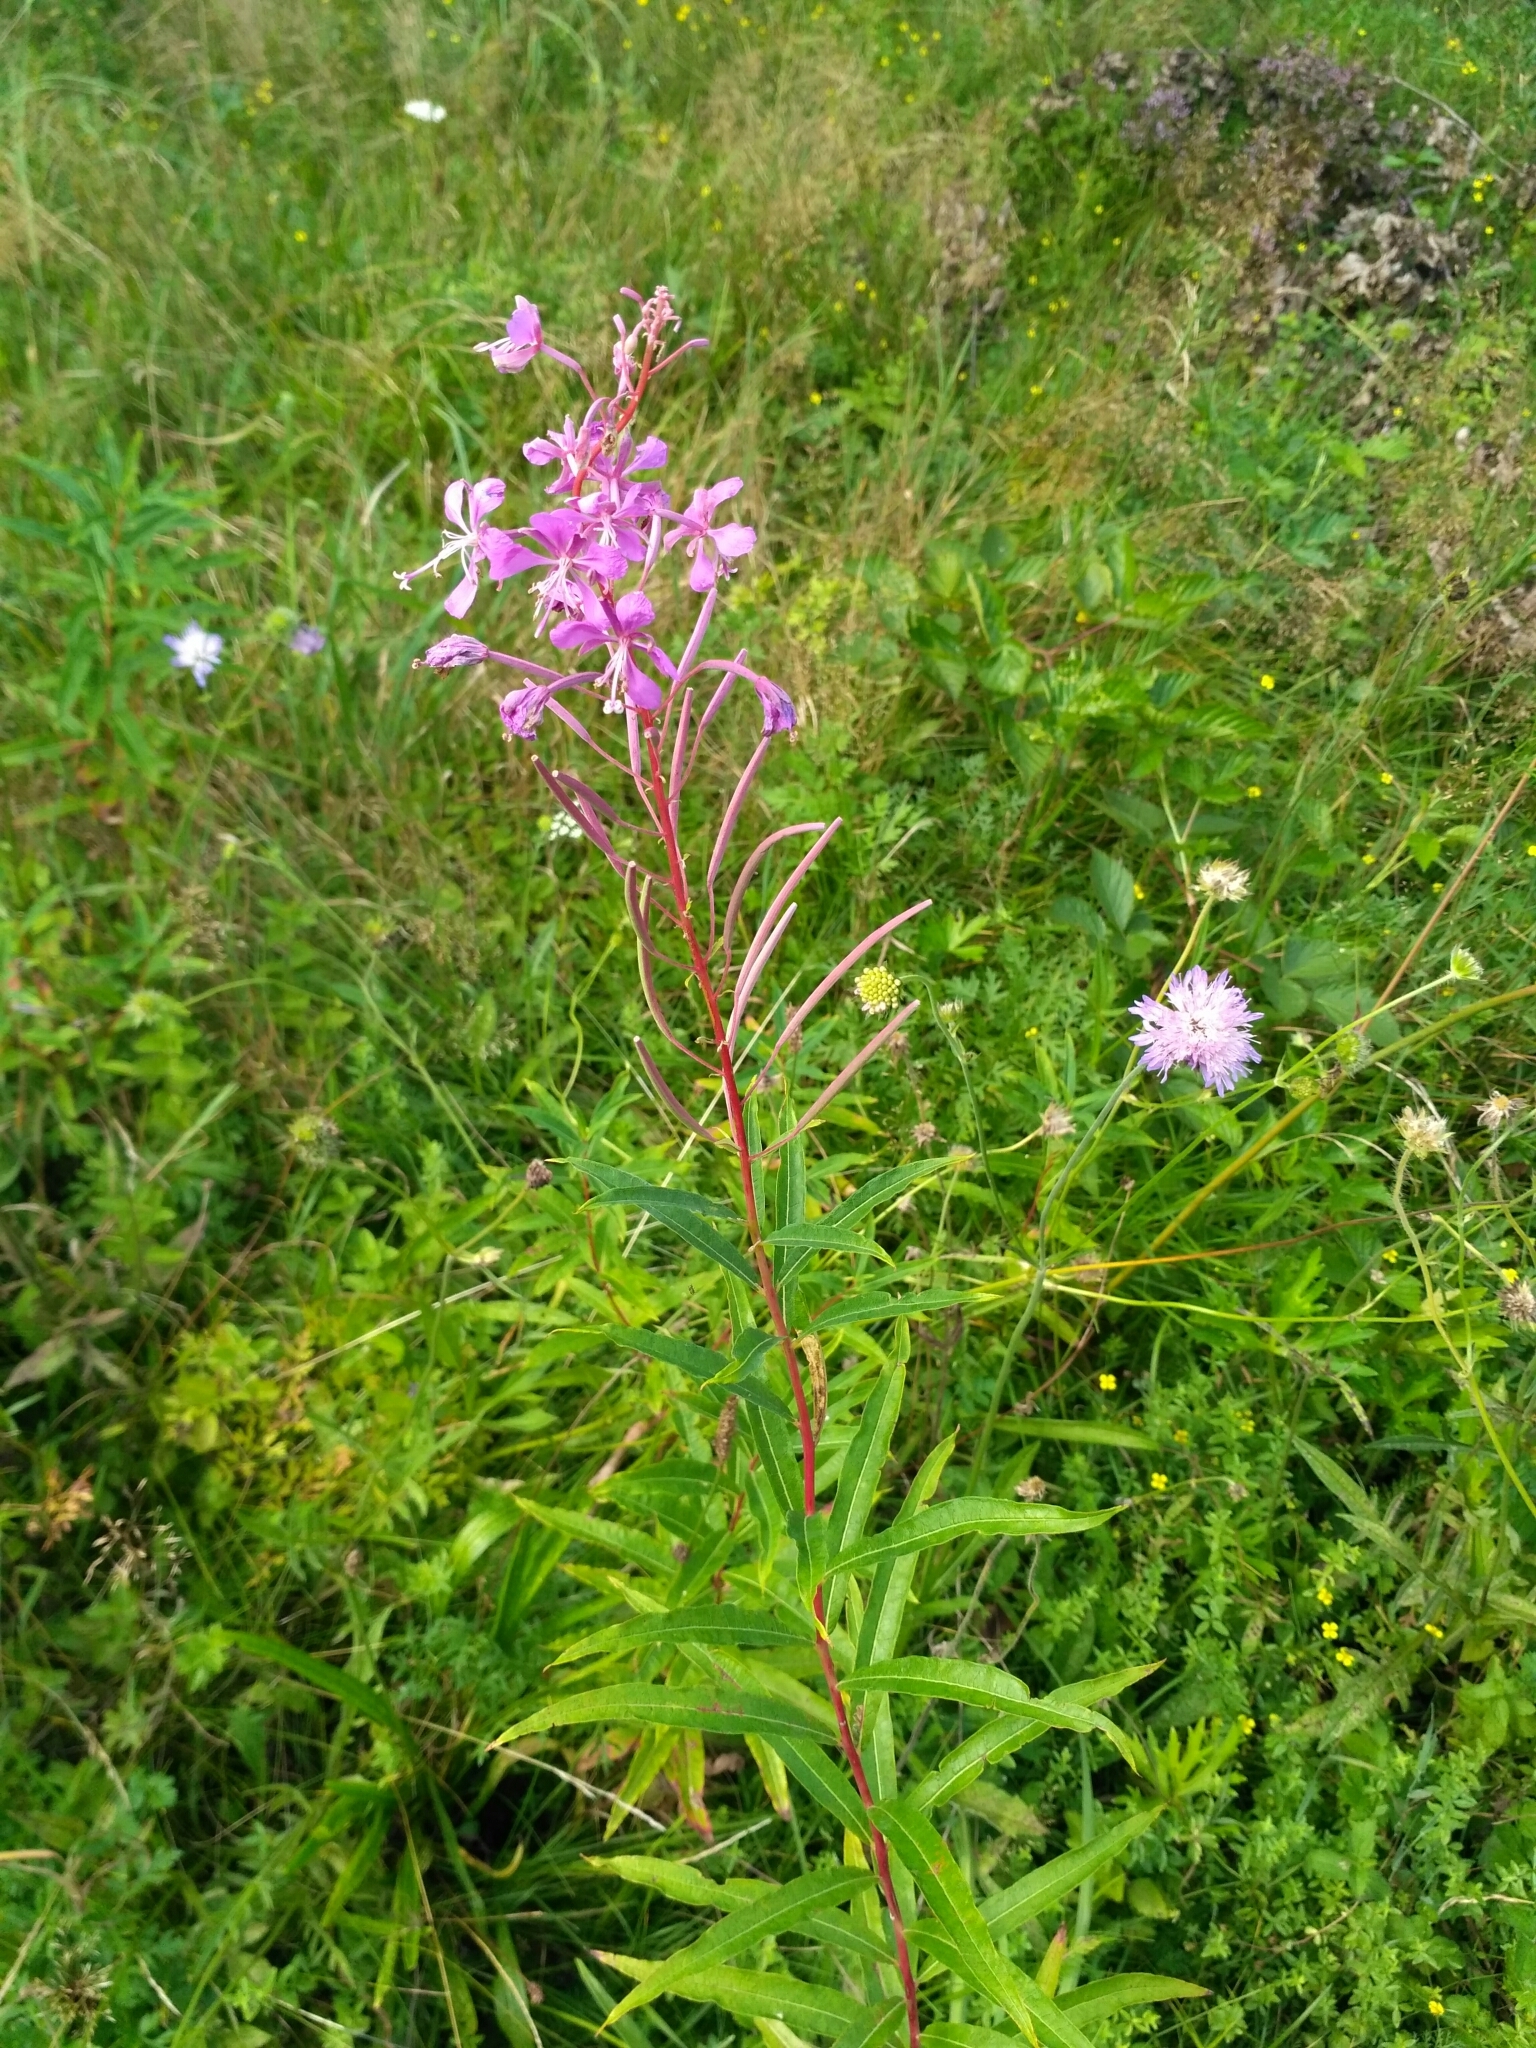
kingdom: Plantae
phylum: Tracheophyta
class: Magnoliopsida
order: Myrtales
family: Onagraceae
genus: Chamaenerion
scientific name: Chamaenerion angustifolium
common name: Fireweed
